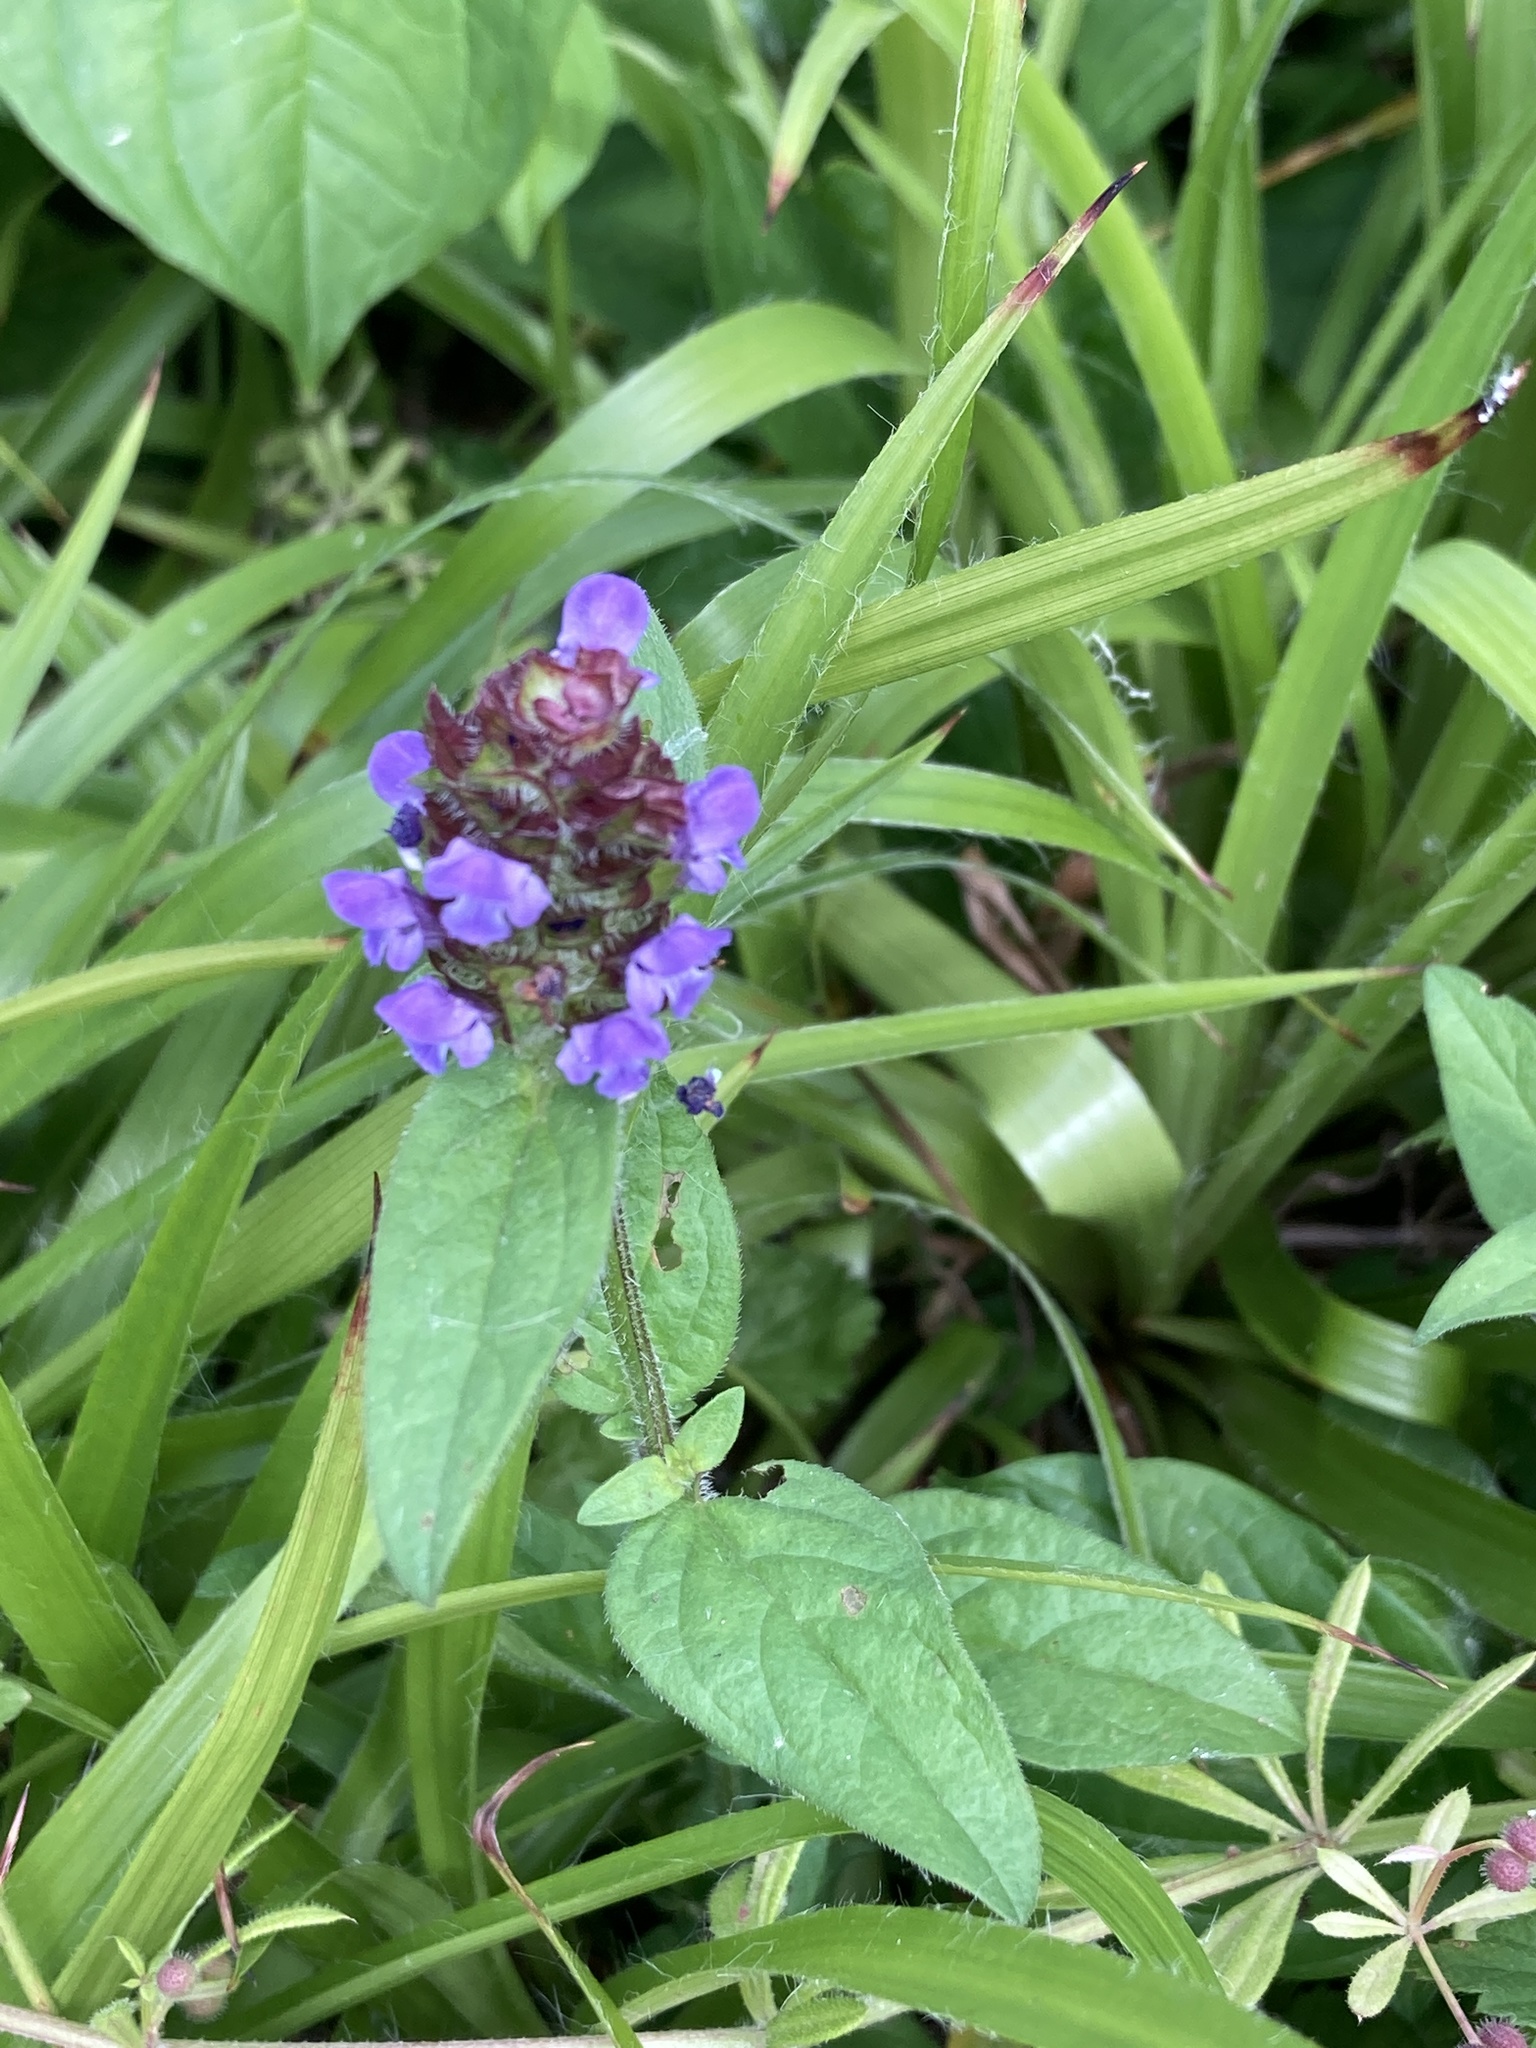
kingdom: Plantae
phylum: Tracheophyta
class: Magnoliopsida
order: Lamiales
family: Lamiaceae
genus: Prunella
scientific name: Prunella vulgaris
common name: Heal-all
